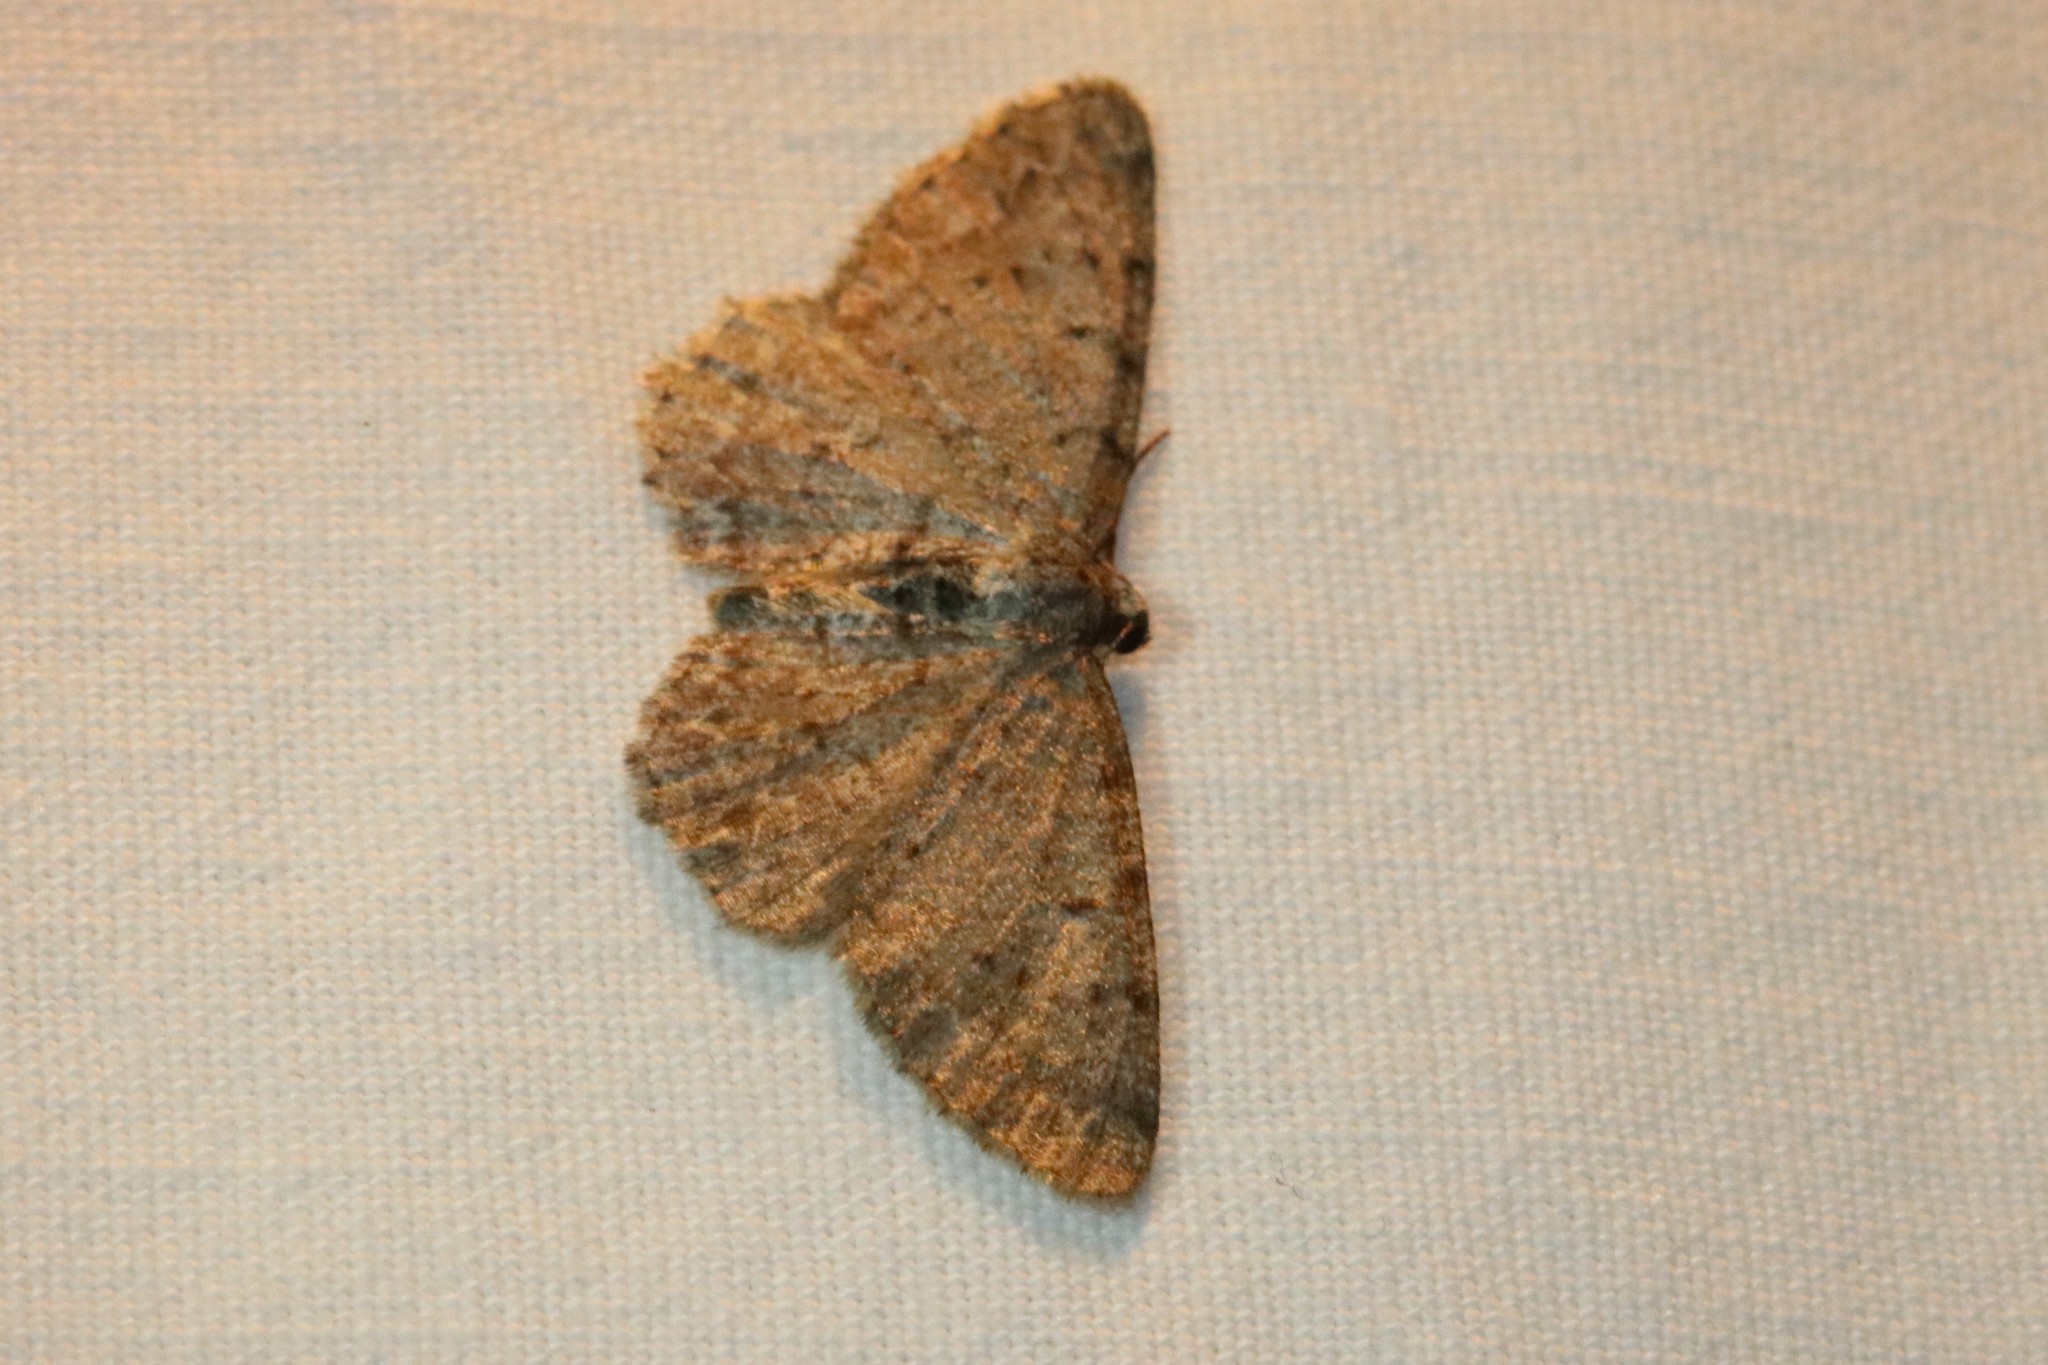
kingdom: Animalia
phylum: Arthropoda
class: Insecta
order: Lepidoptera
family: Geometridae
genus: Aethalura
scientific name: Aethalura intertexta
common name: Four-barred gray
